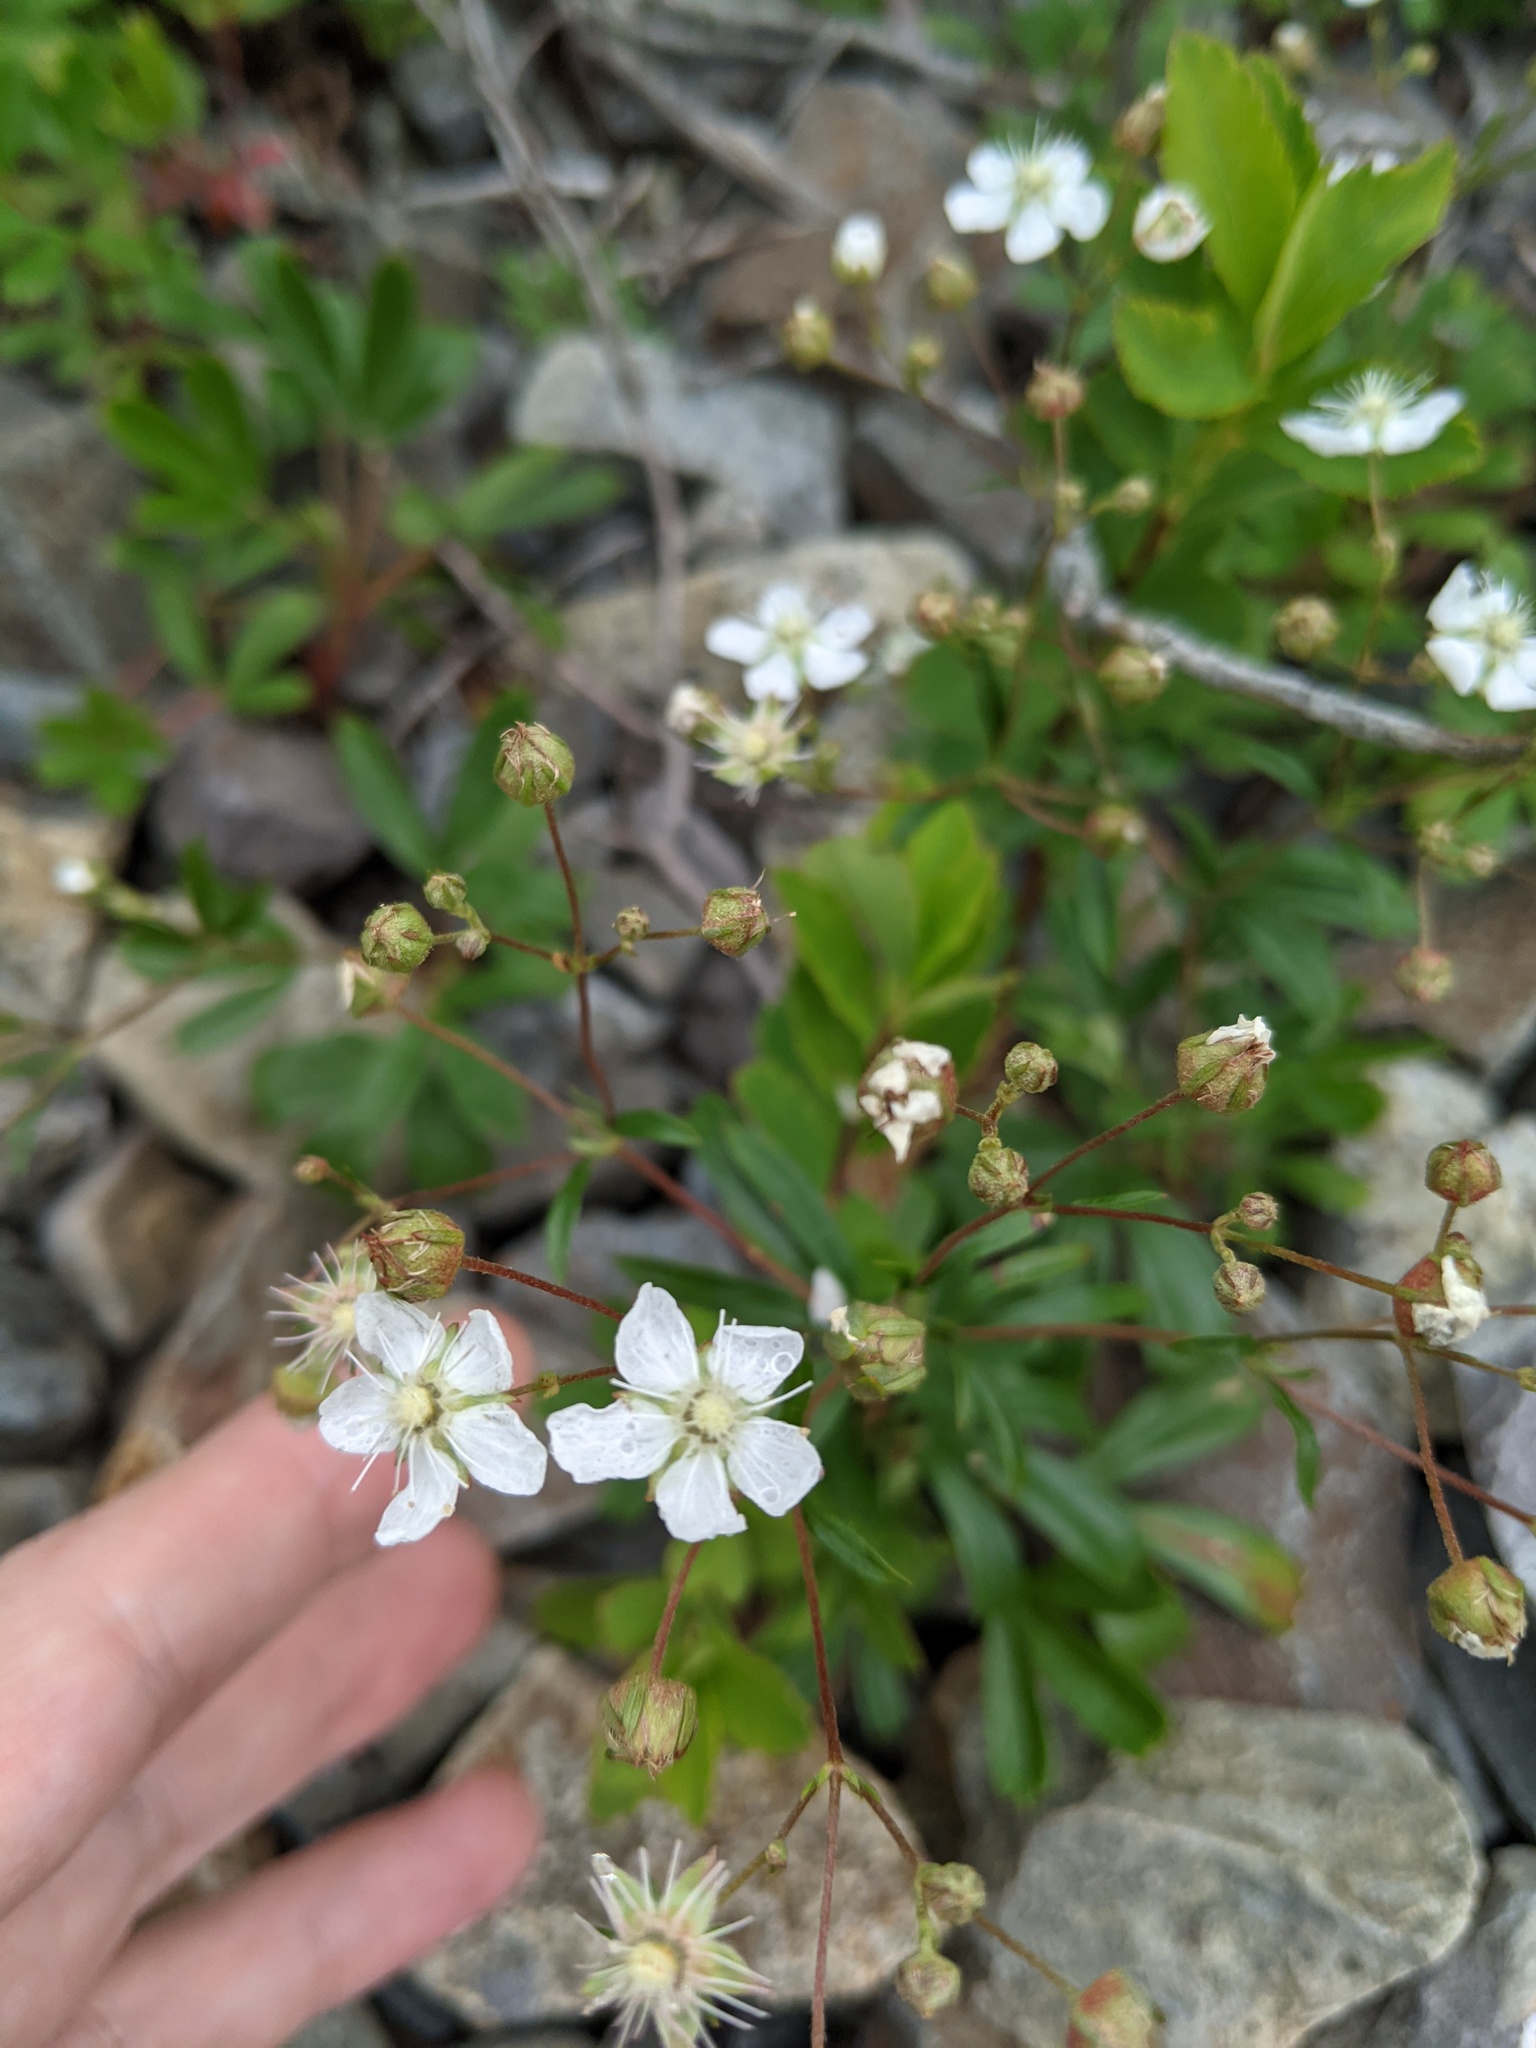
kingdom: Plantae
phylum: Tracheophyta
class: Magnoliopsida
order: Rosales
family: Rosaceae
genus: Sibbaldia
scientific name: Sibbaldia tridentata
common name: Three-toothed cinquefoil
